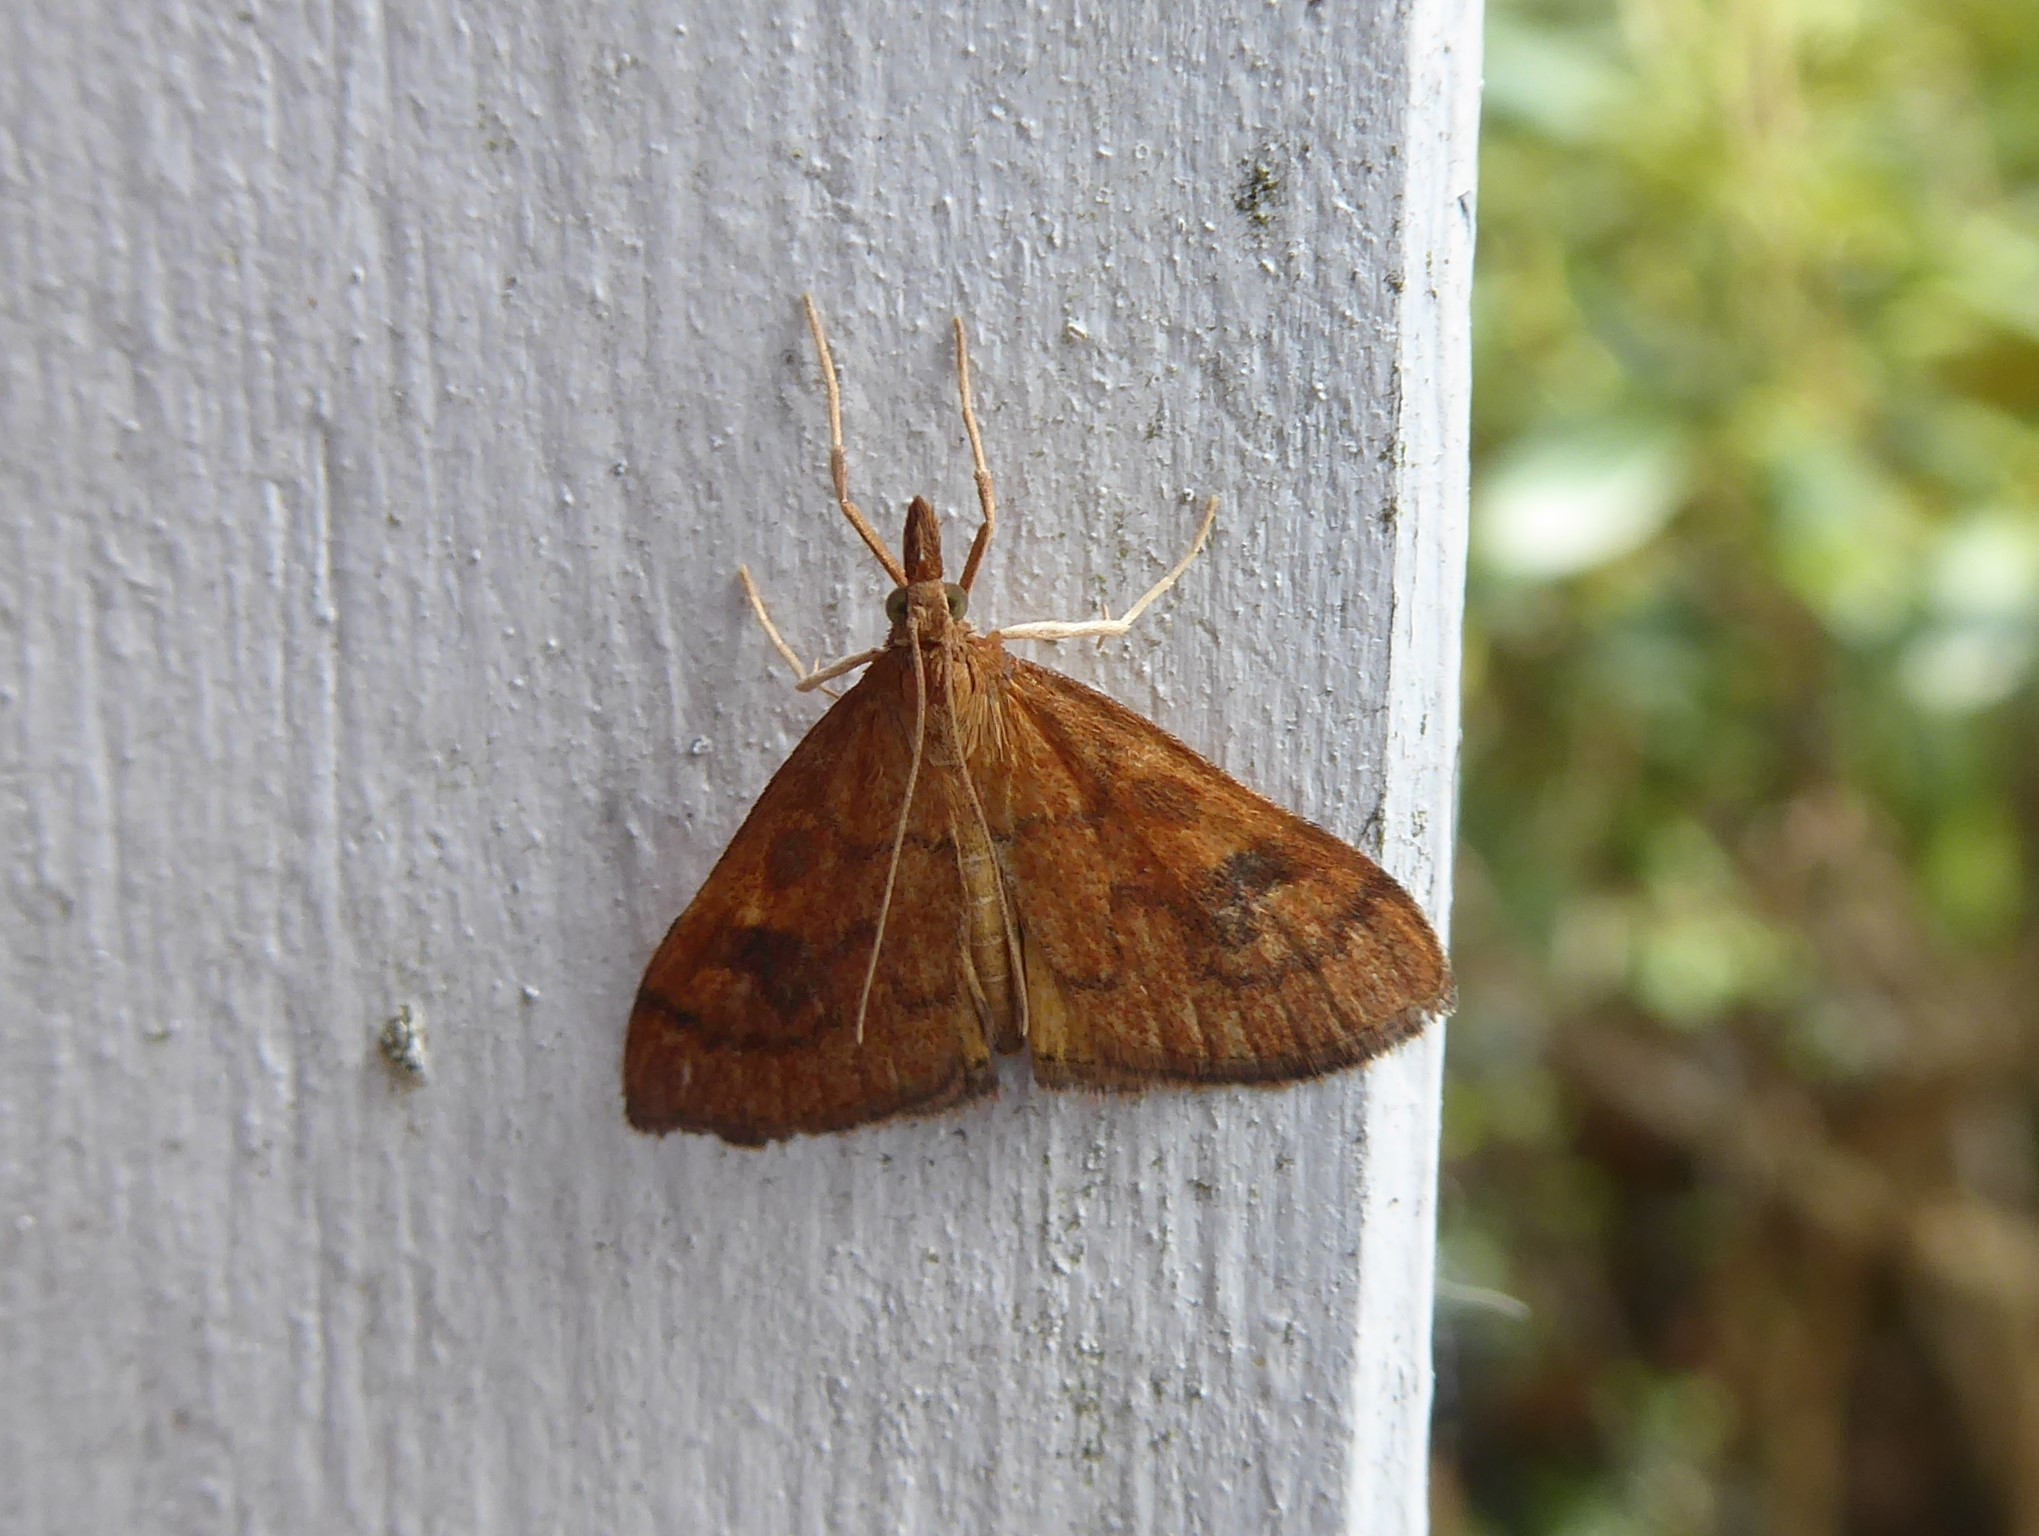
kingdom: Animalia
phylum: Arthropoda
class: Insecta
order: Lepidoptera
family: Crambidae
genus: Udea
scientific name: Udea Mnesictena flavidalis
